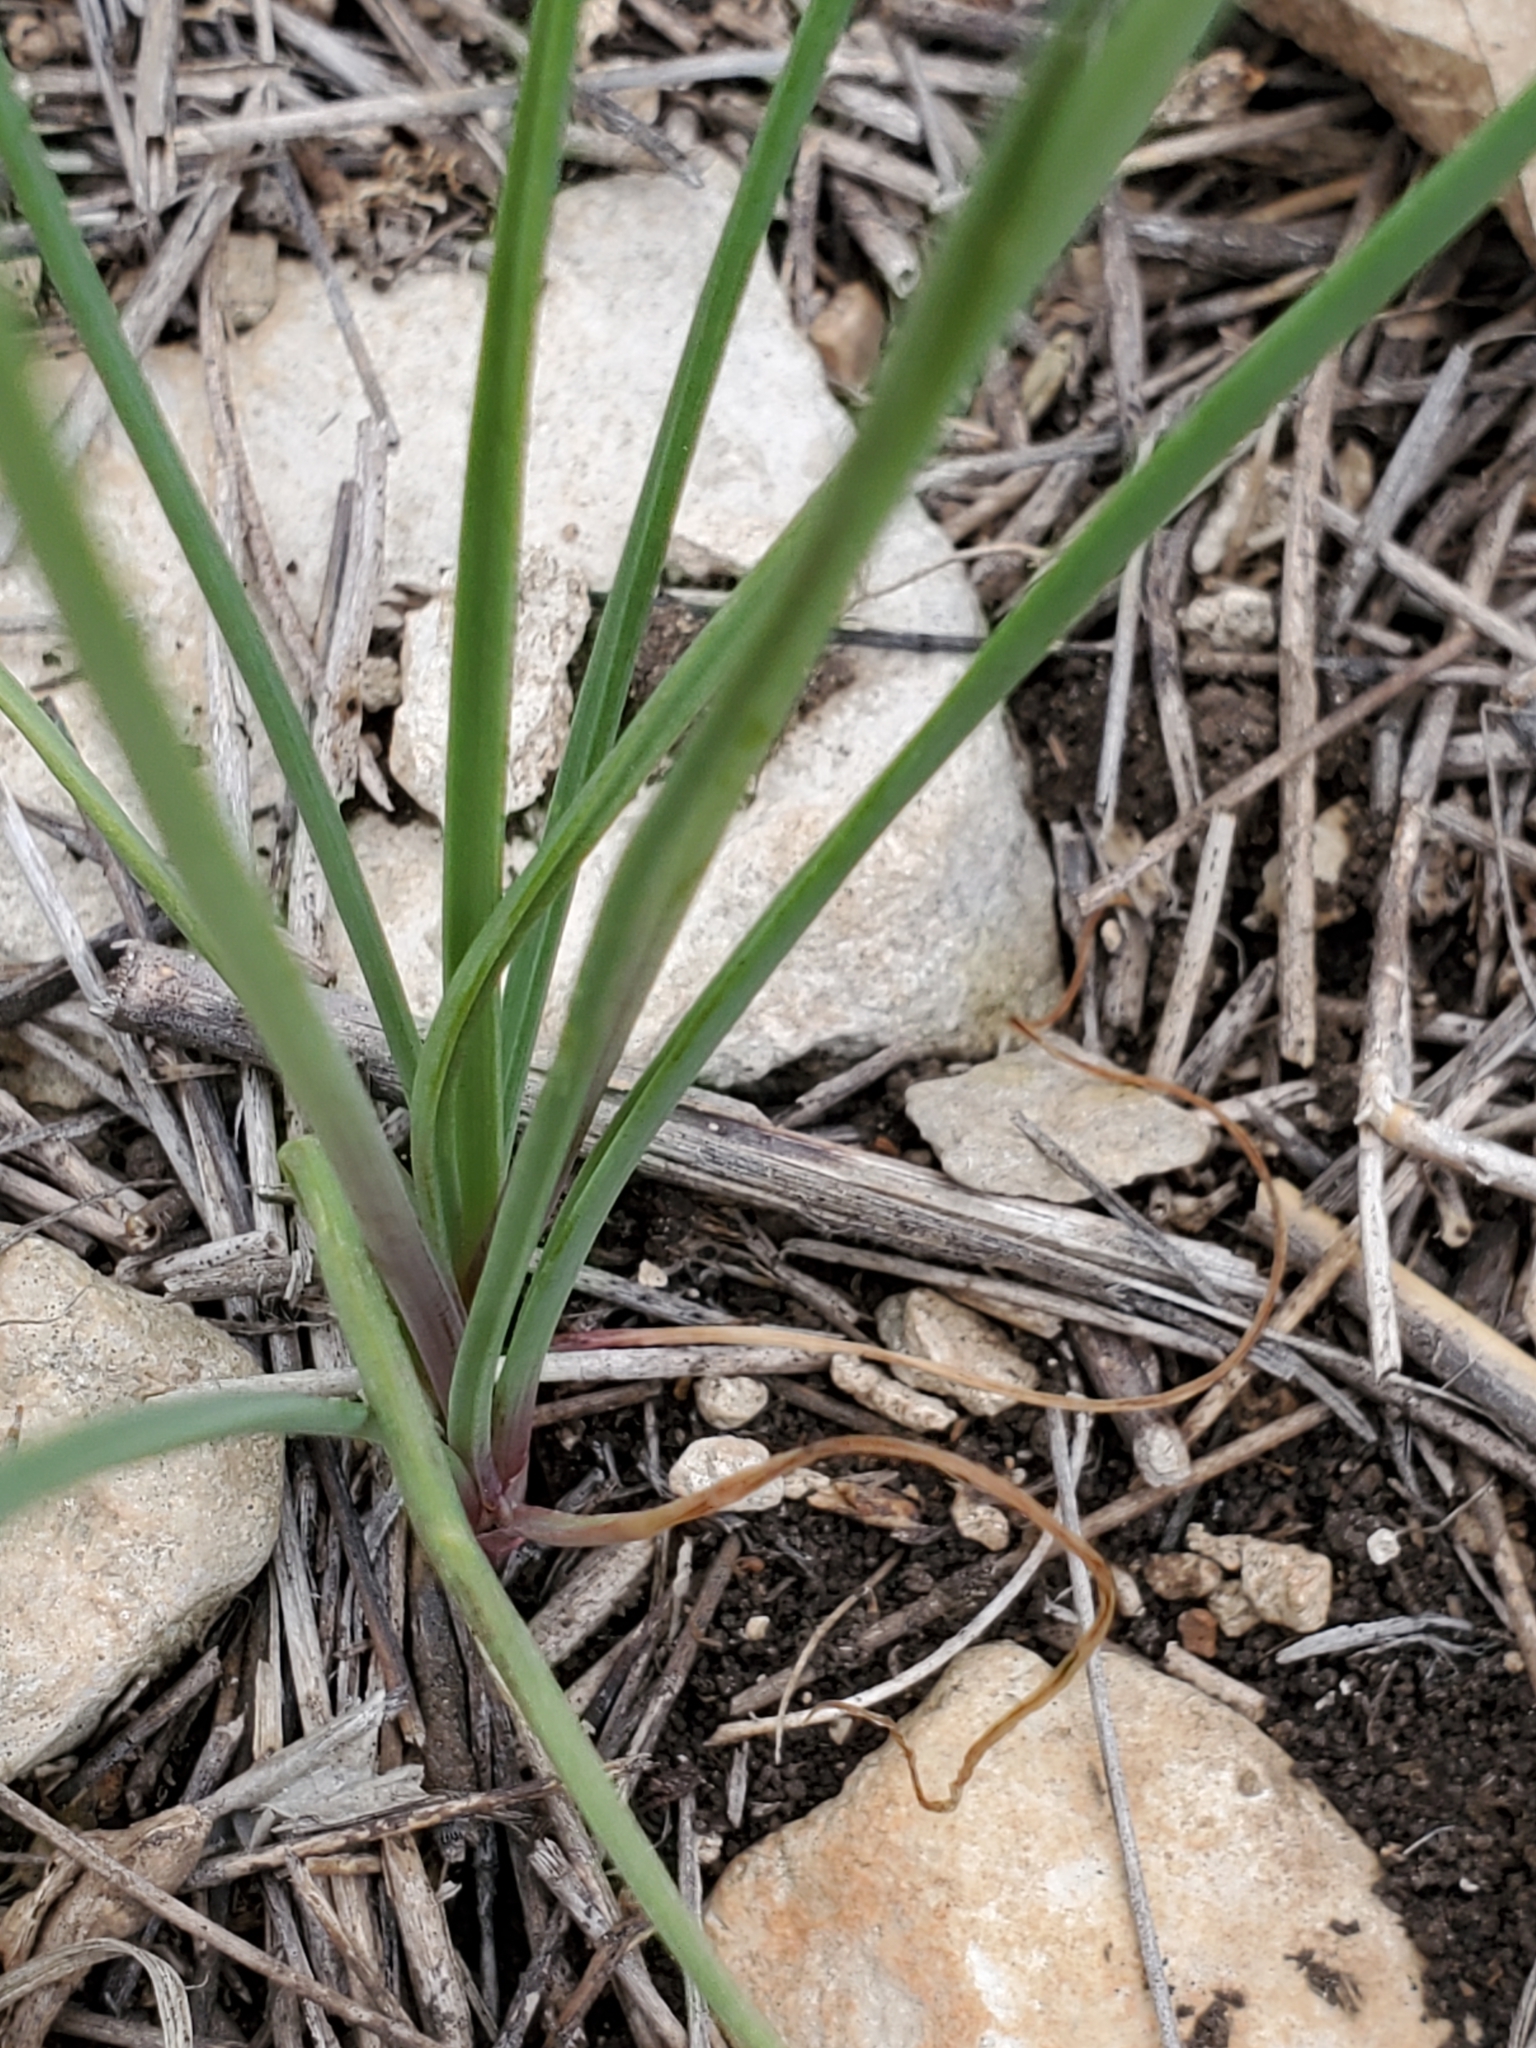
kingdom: Plantae
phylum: Tracheophyta
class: Liliopsida
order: Asparagales
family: Amaryllidaceae
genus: Allium
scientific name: Allium drummondii
